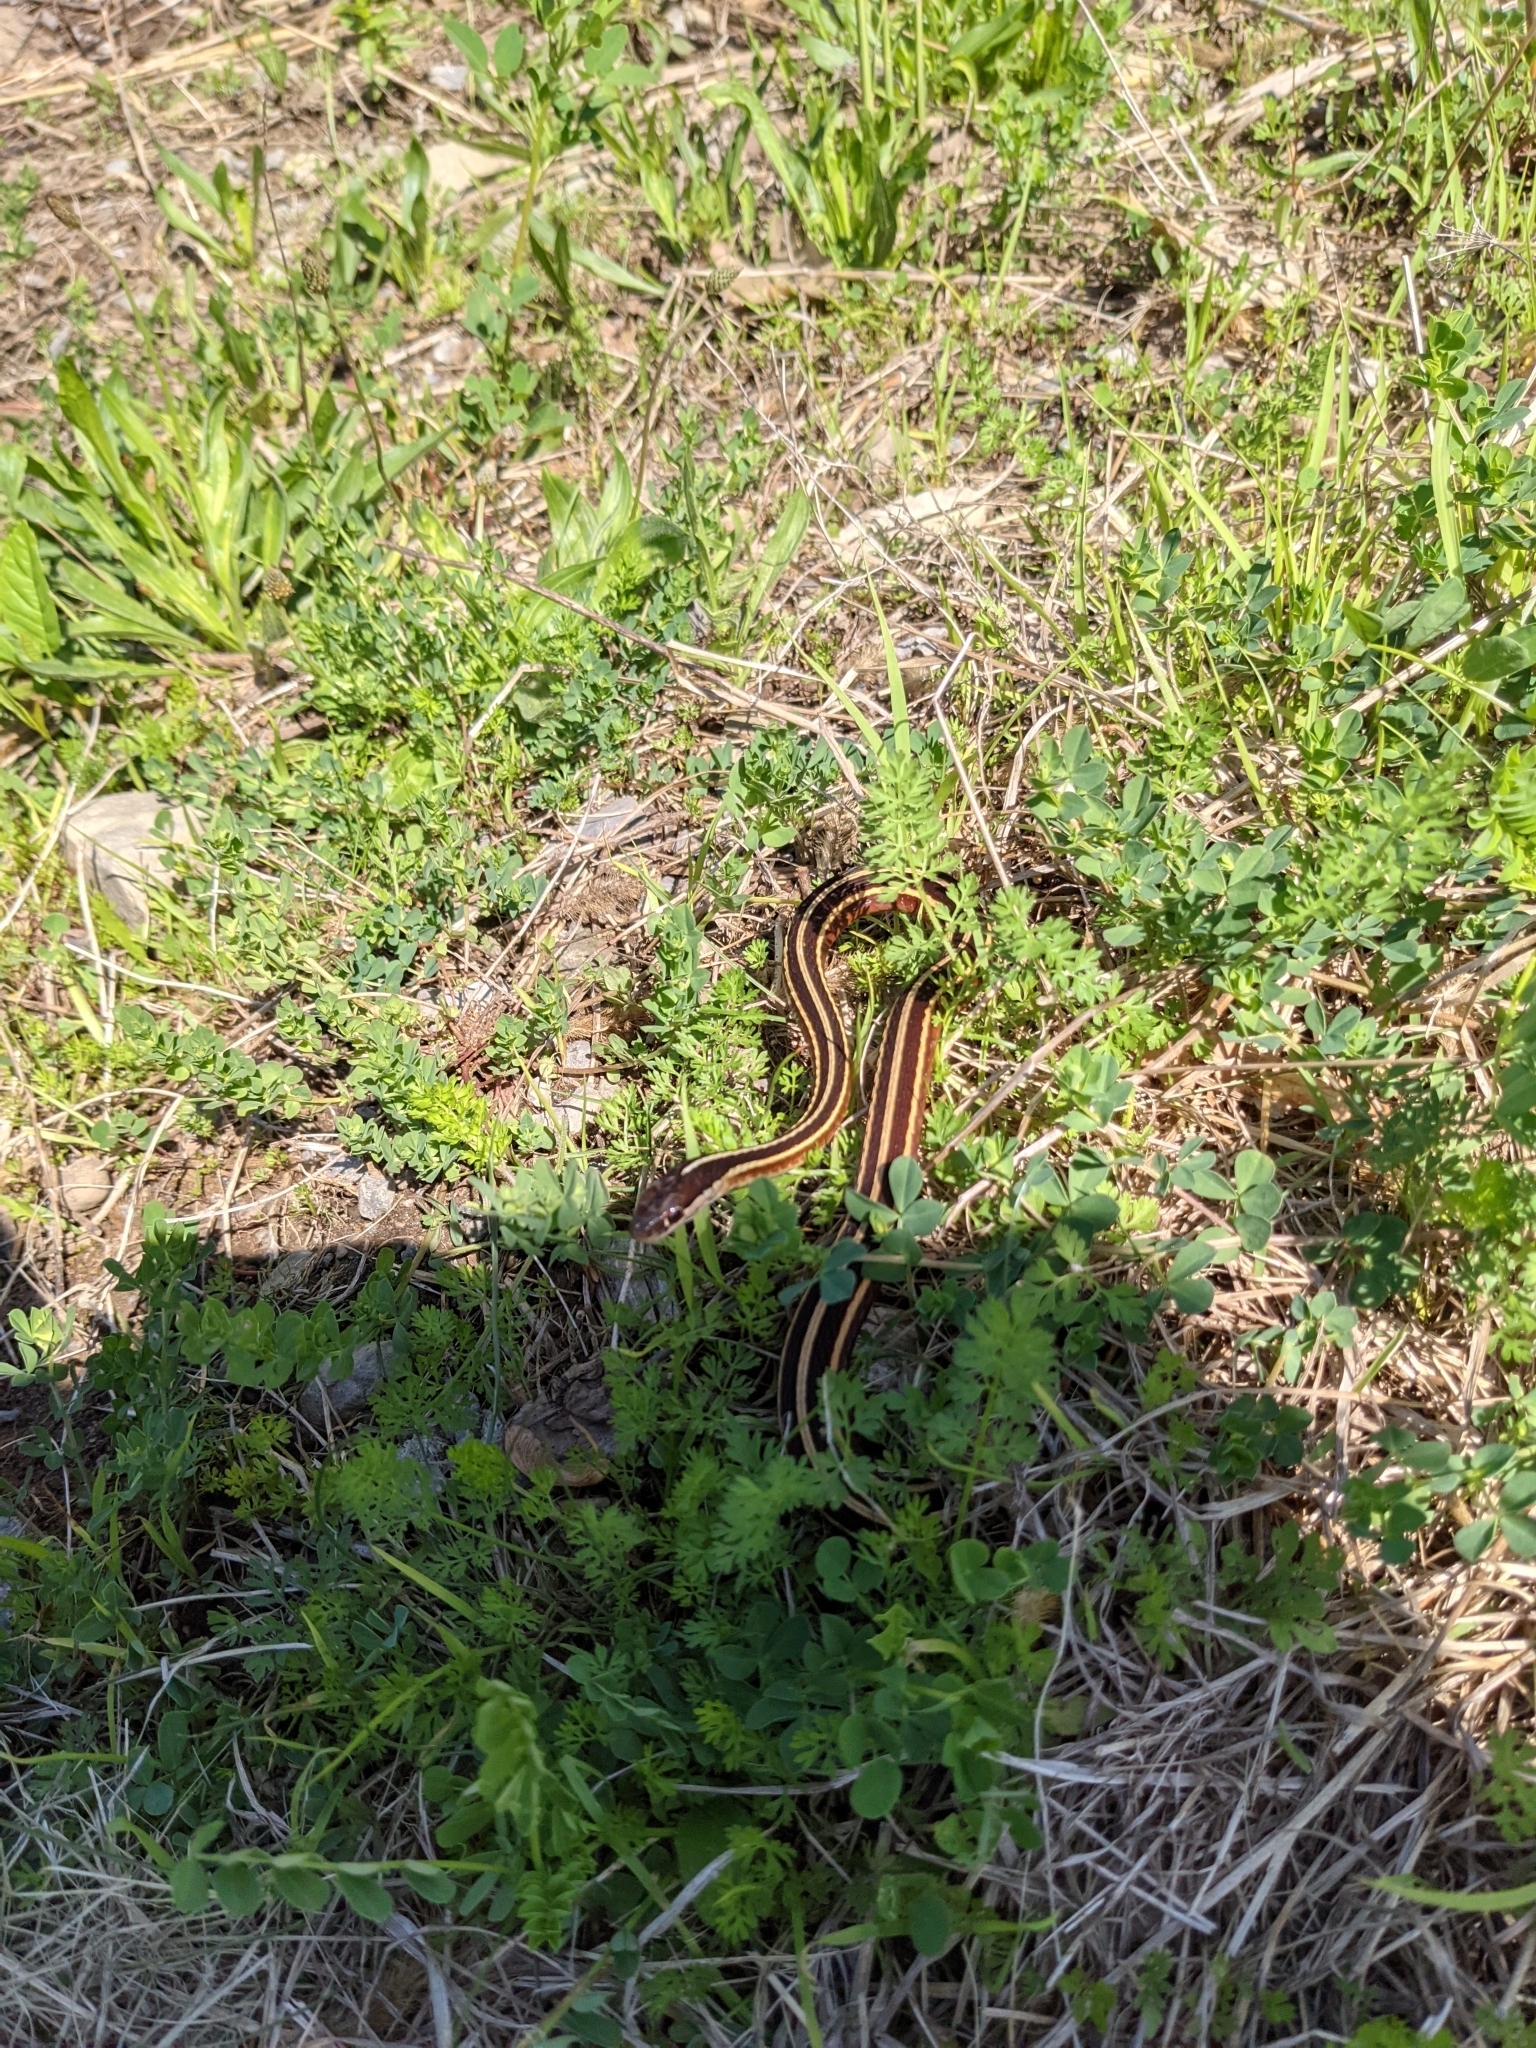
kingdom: Animalia
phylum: Chordata
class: Squamata
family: Colubridae
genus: Thamnophis
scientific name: Thamnophis saurita
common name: Eastern ribbonsnake
